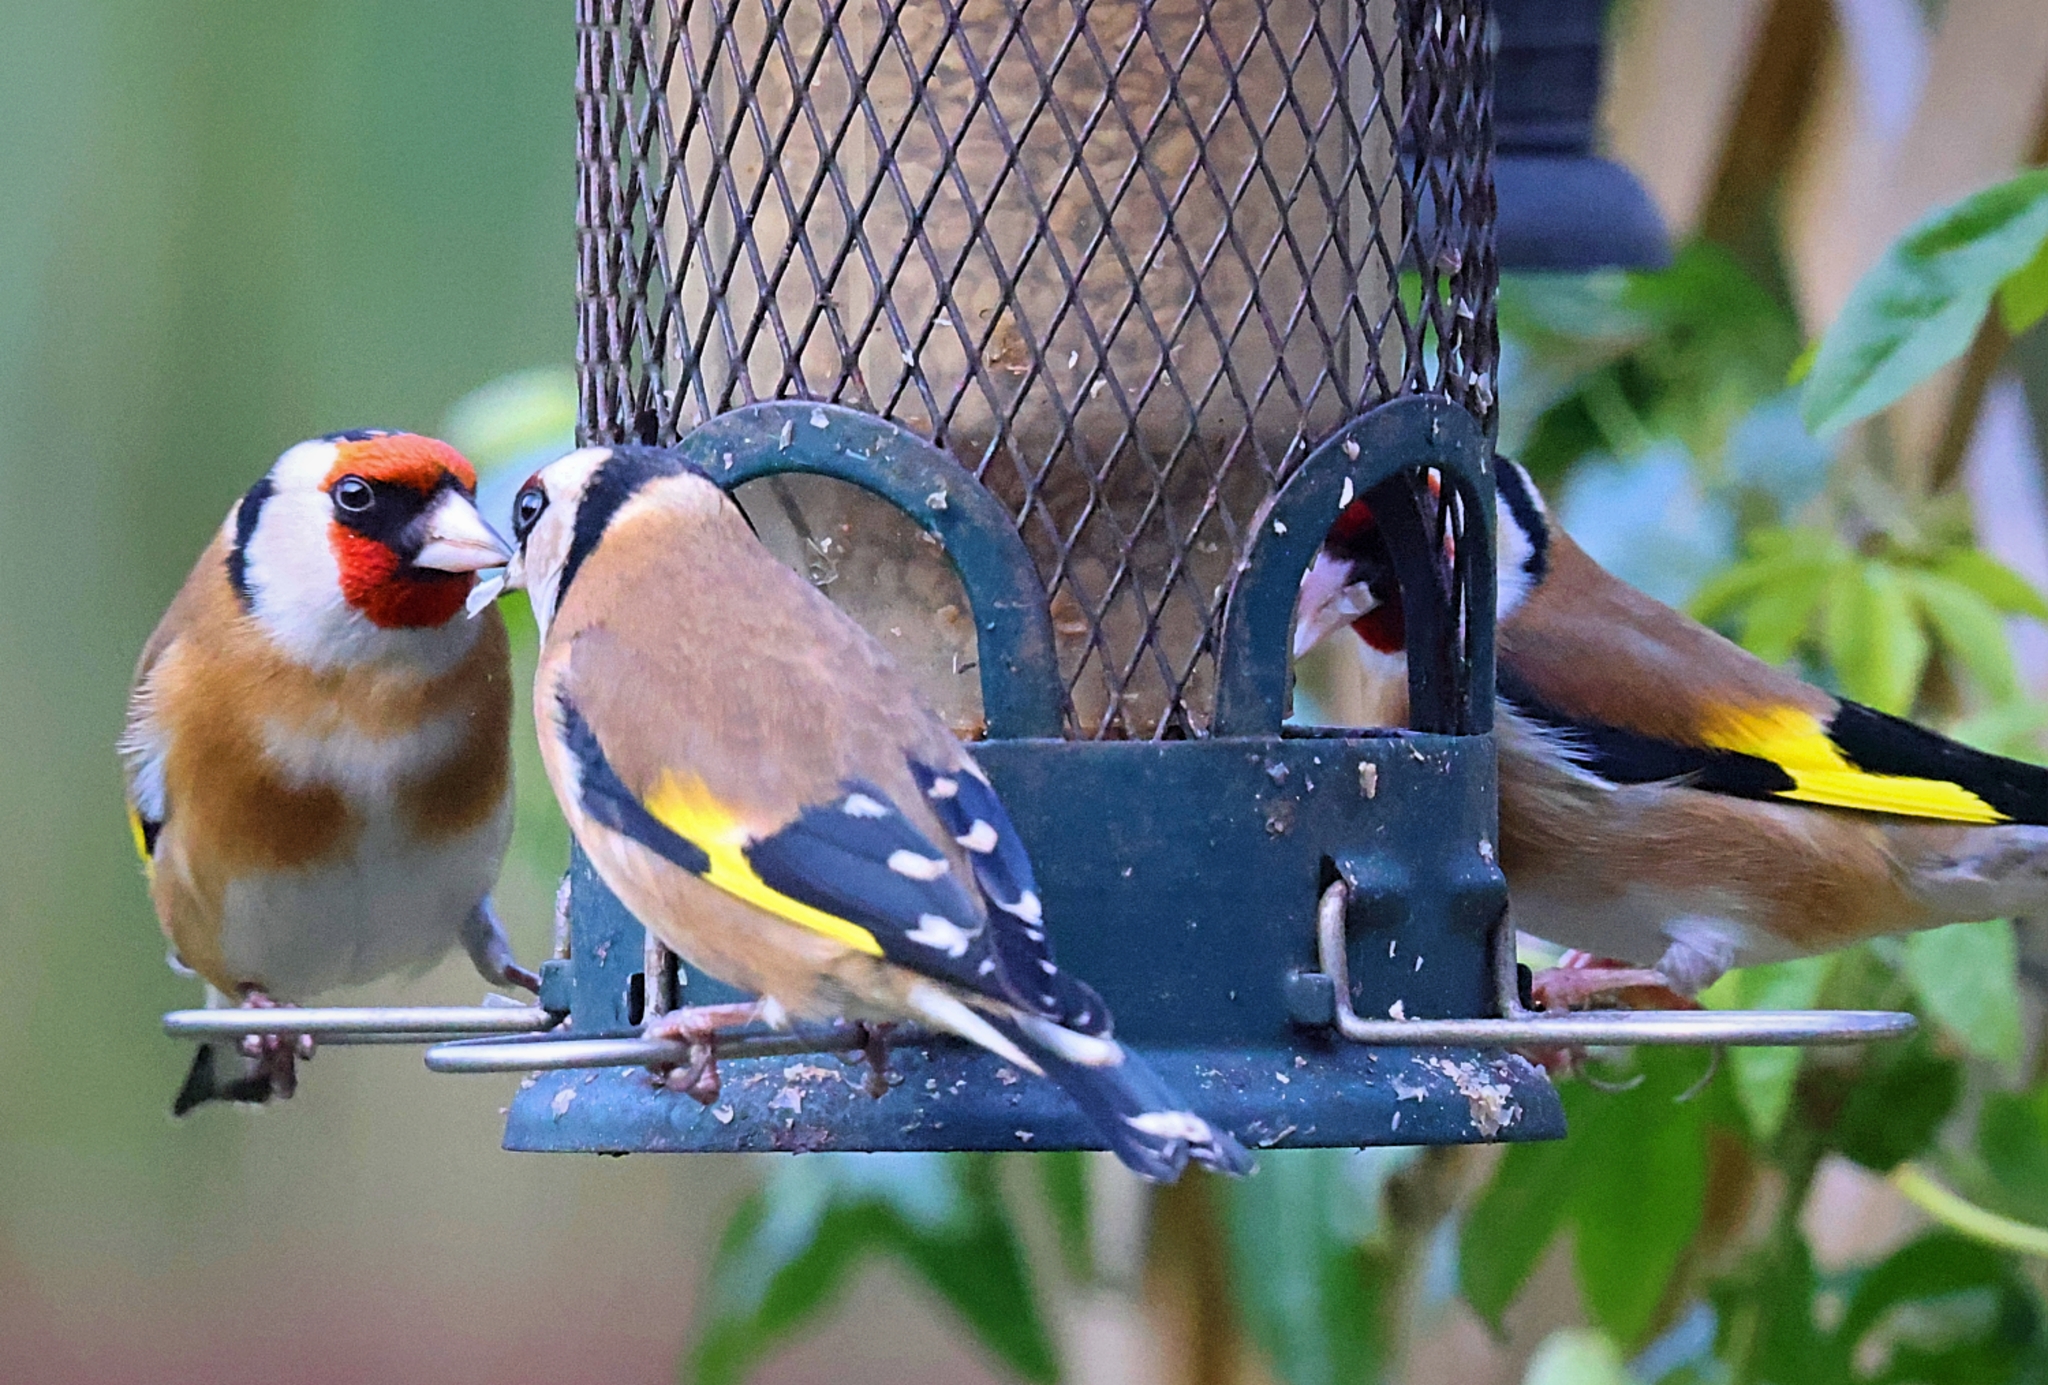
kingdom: Animalia
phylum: Chordata
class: Aves
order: Passeriformes
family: Fringillidae
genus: Carduelis
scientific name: Carduelis carduelis
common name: European goldfinch
